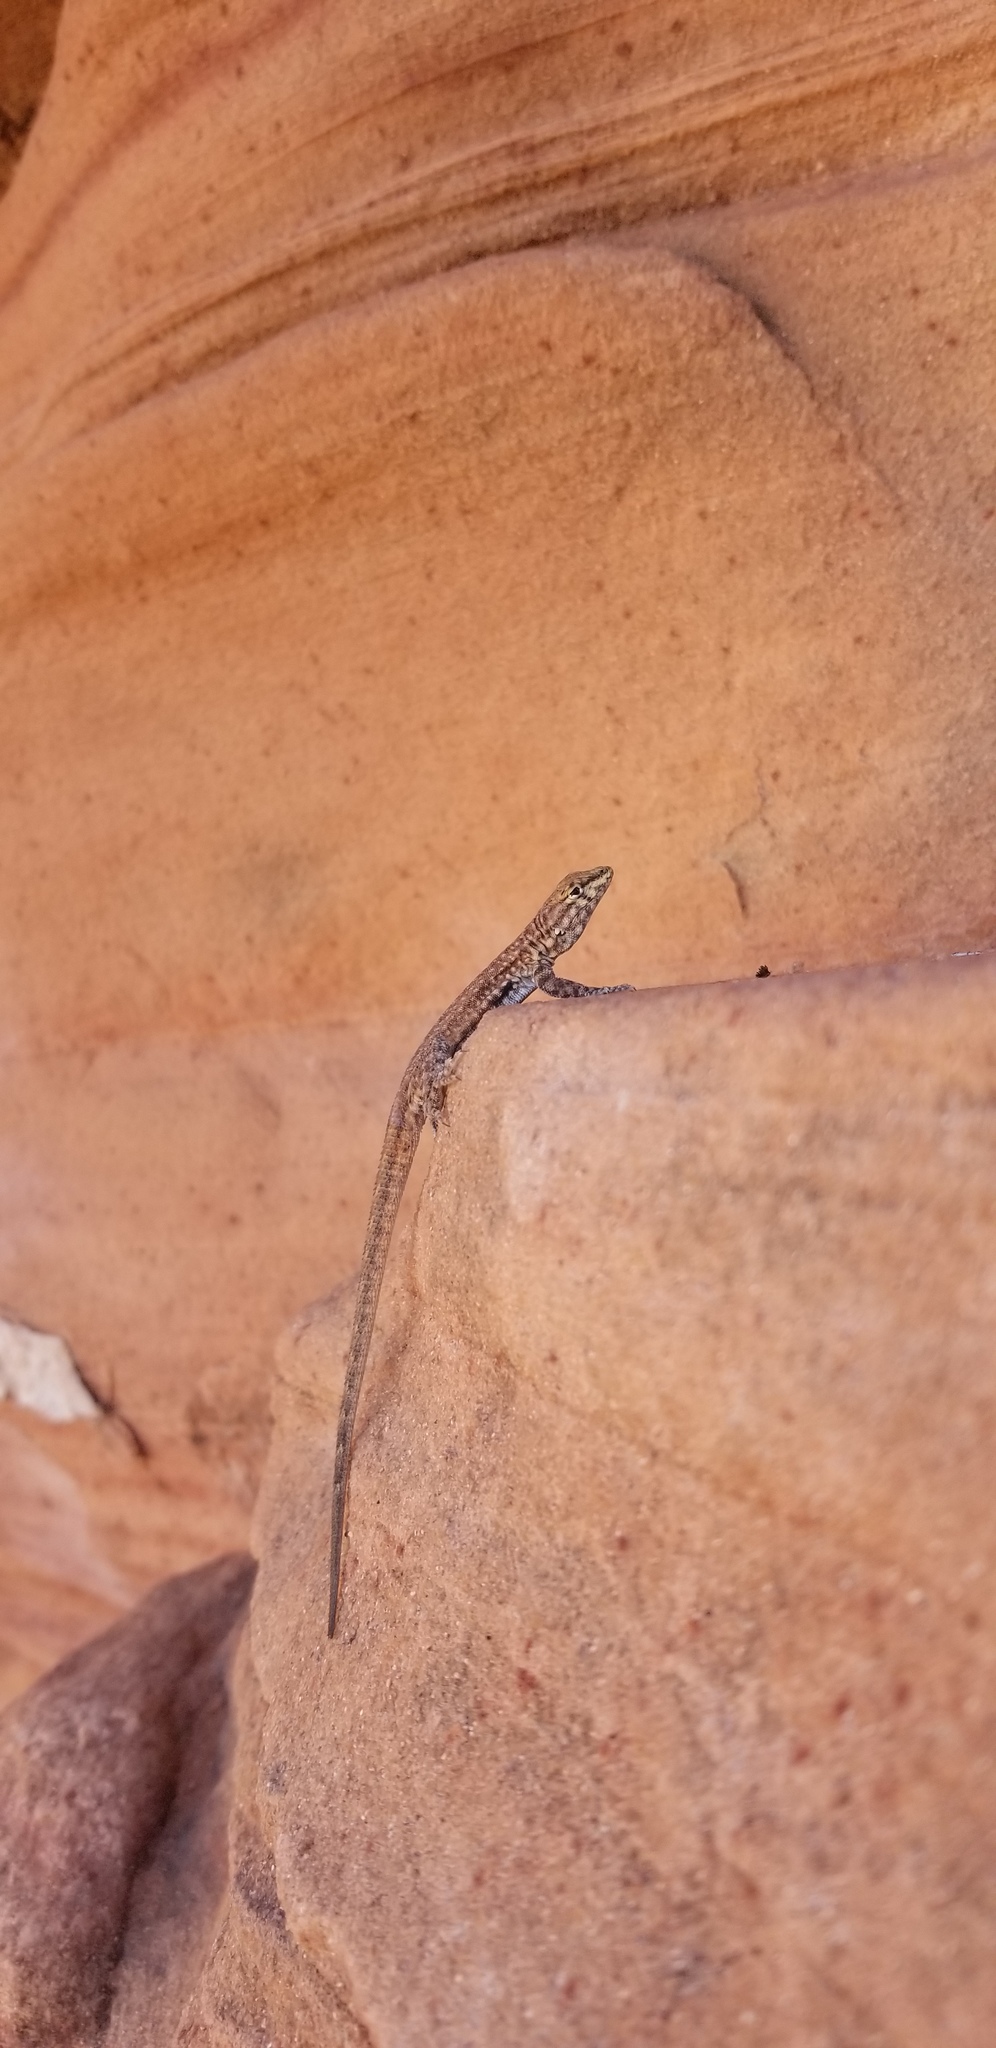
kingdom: Animalia
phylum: Chordata
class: Squamata
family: Phrynosomatidae
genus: Uta
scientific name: Uta stansburiana
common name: Side-blotched lizard
